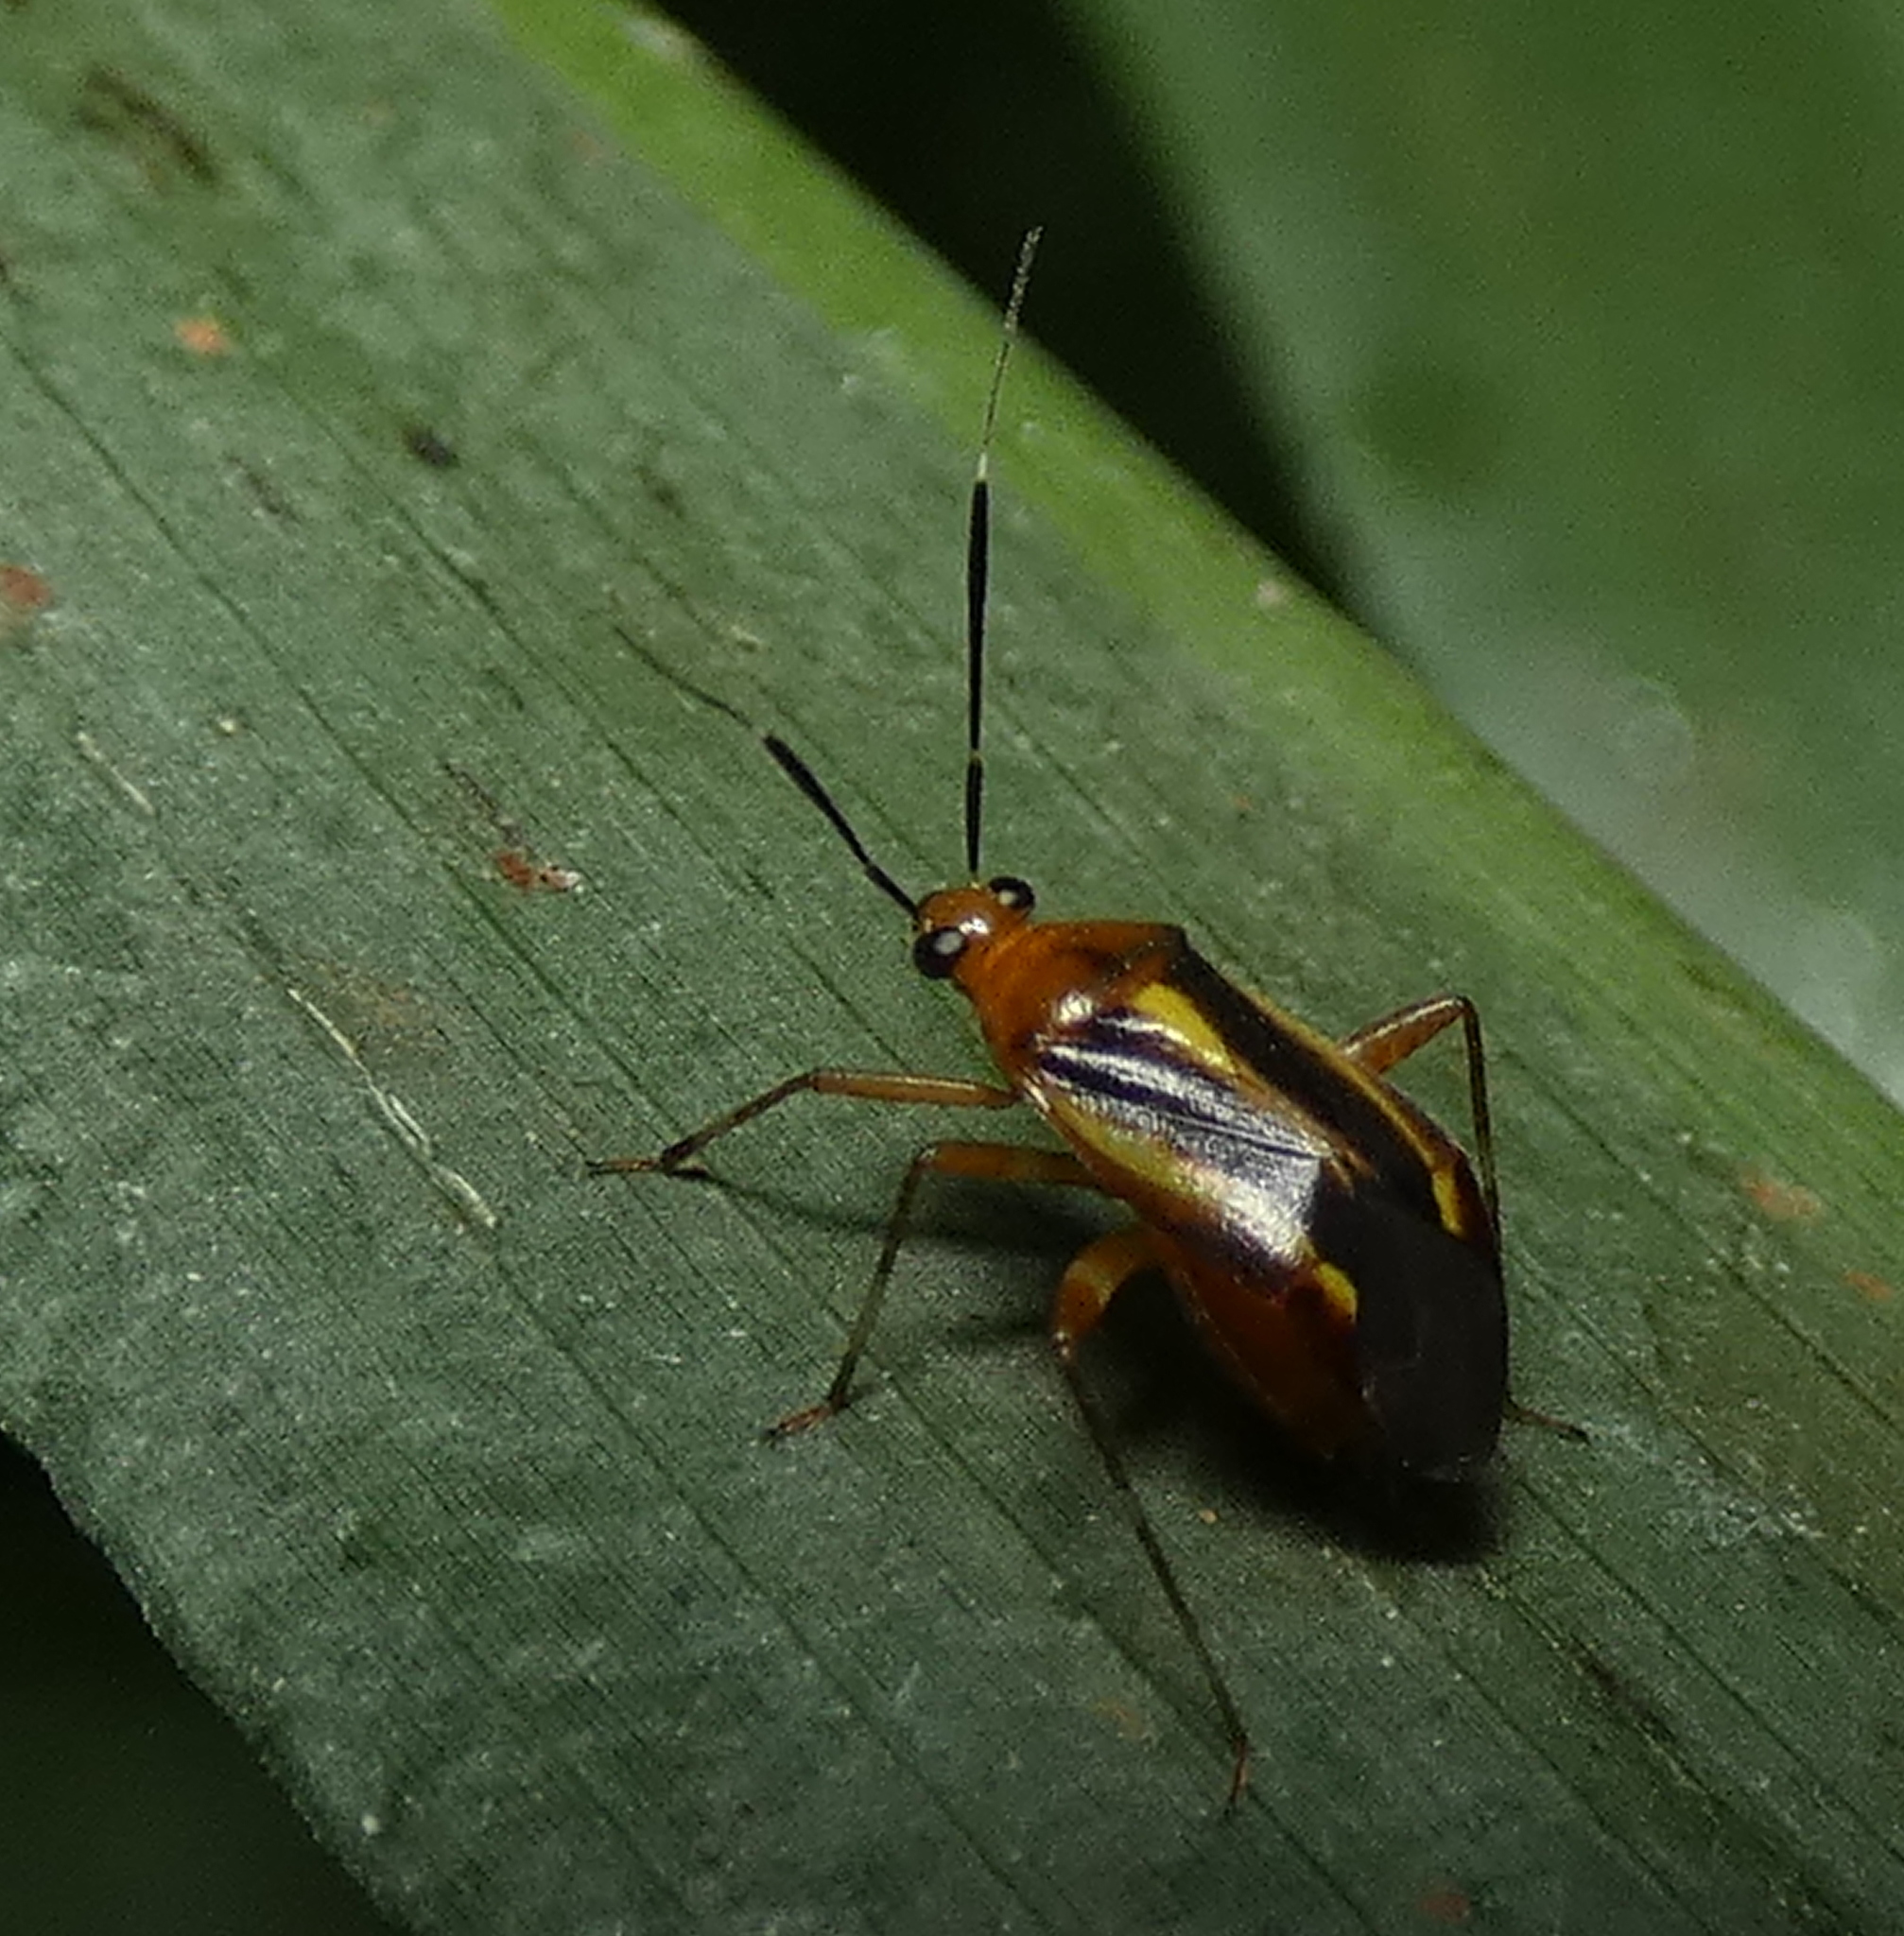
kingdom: Animalia
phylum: Arthropoda
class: Insecta
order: Hemiptera
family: Miridae
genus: Horciasinus
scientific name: Horciasinus signoreti
